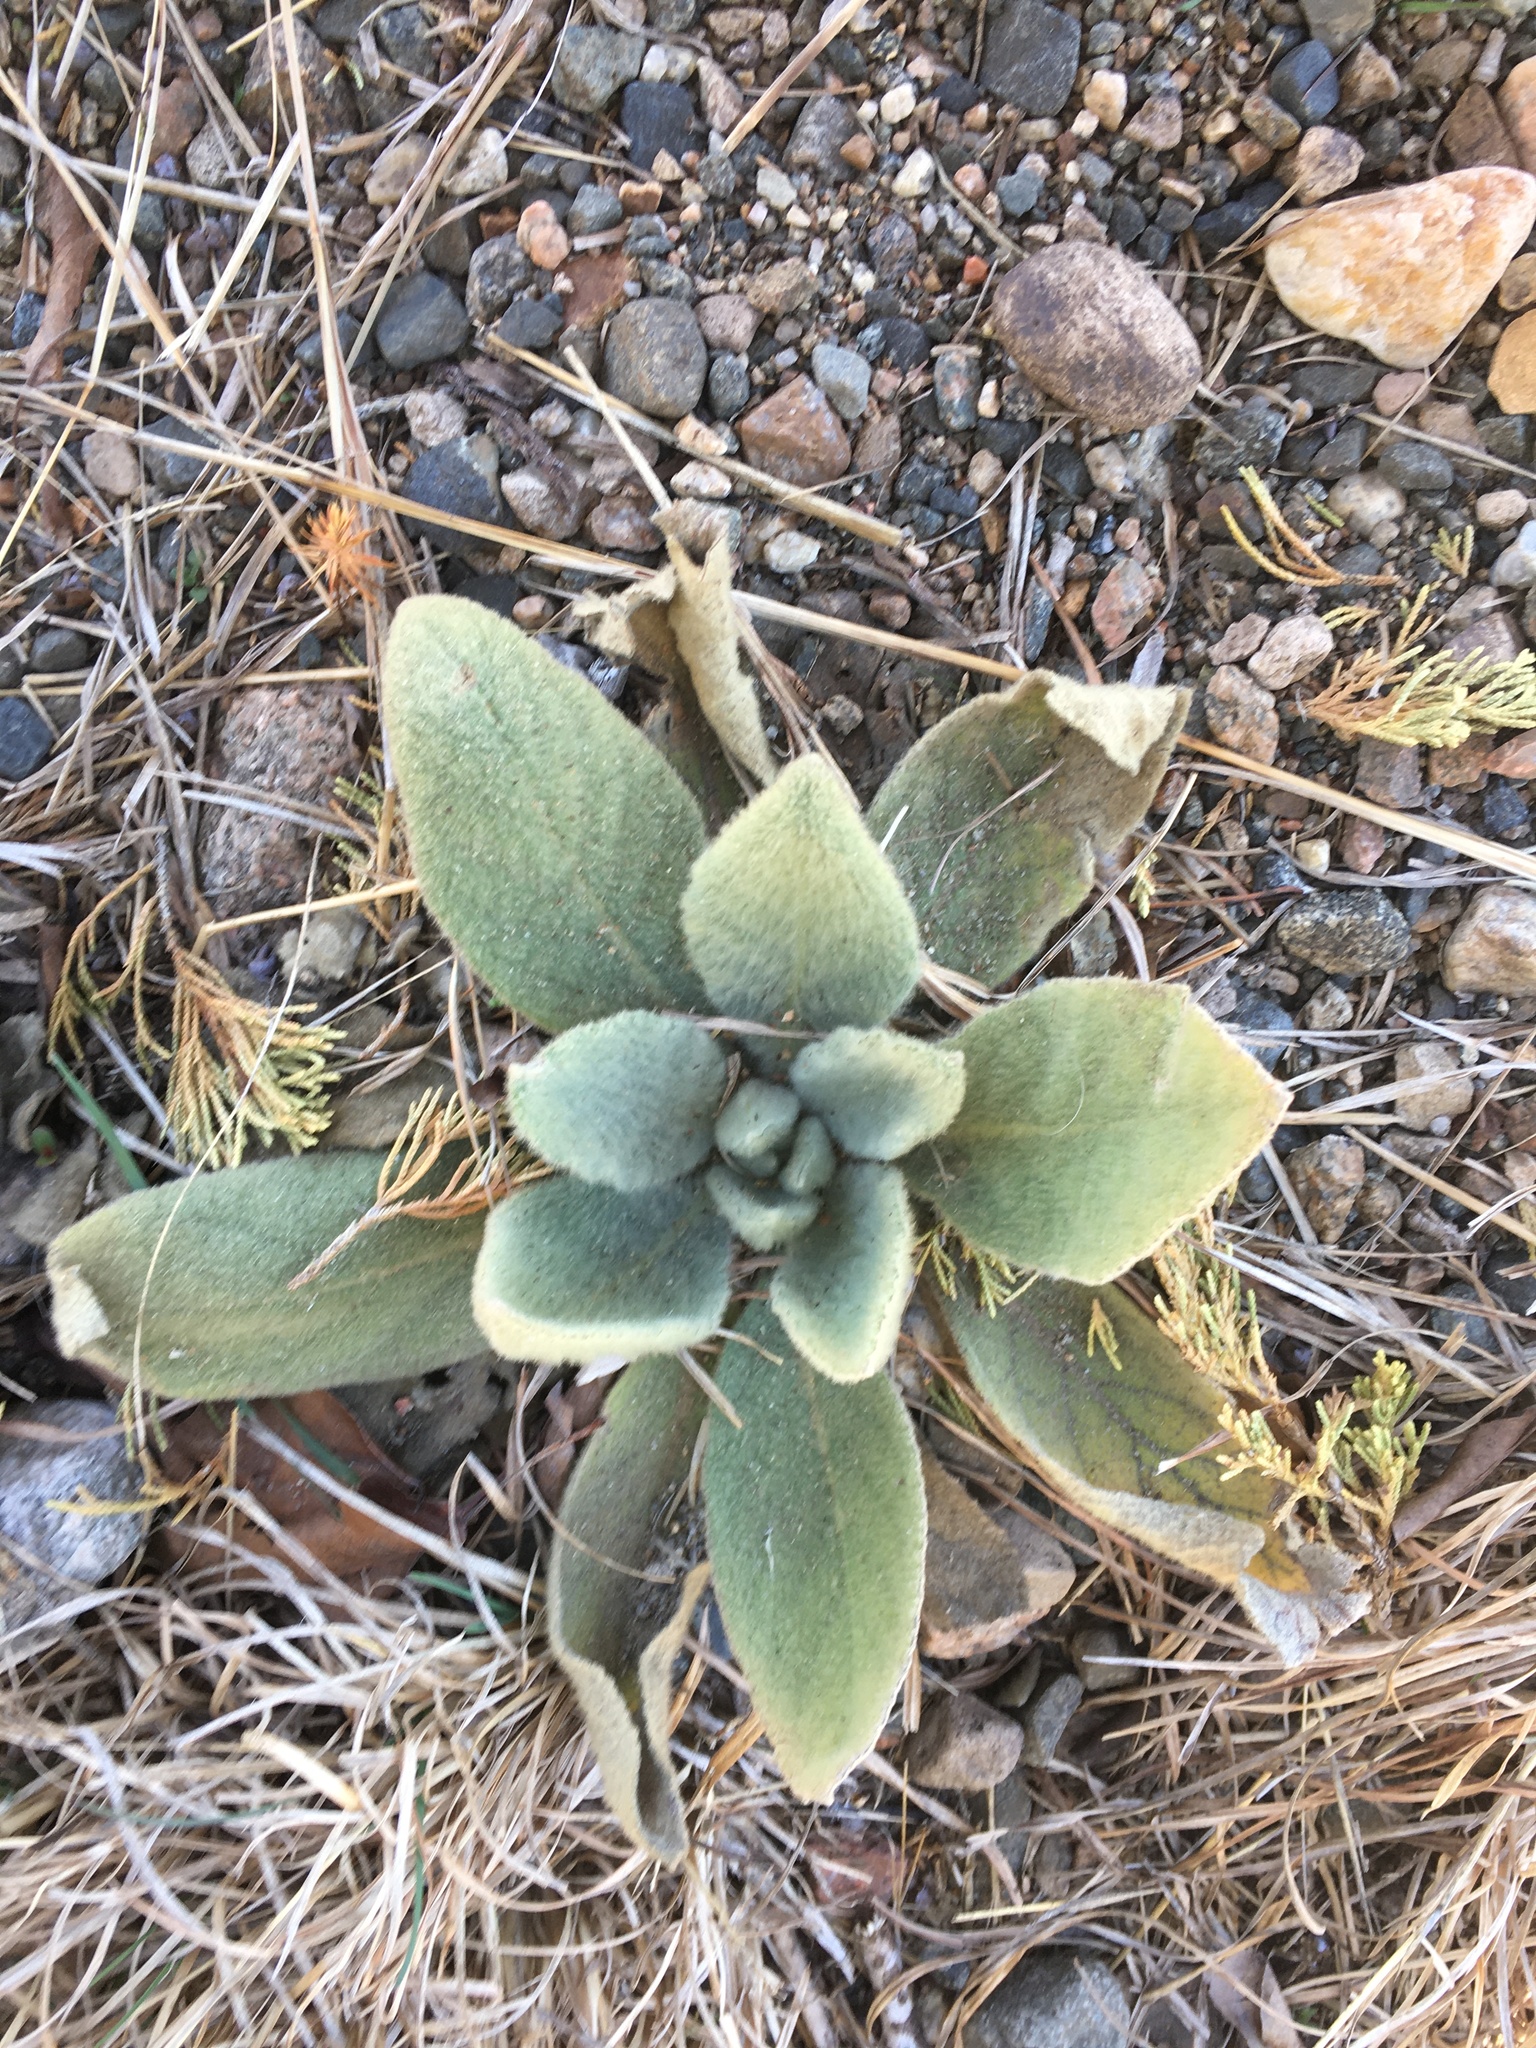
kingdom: Plantae
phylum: Tracheophyta
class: Magnoliopsida
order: Lamiales
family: Scrophulariaceae
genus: Verbascum
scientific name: Verbascum thapsus
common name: Common mullein
